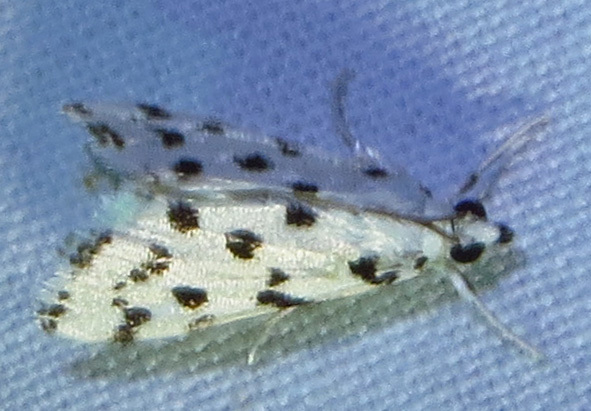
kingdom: Animalia
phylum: Arthropoda
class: Insecta
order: Lepidoptera
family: Crambidae
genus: Eustixia
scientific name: Eustixia pupula
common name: American cabbage pearl
